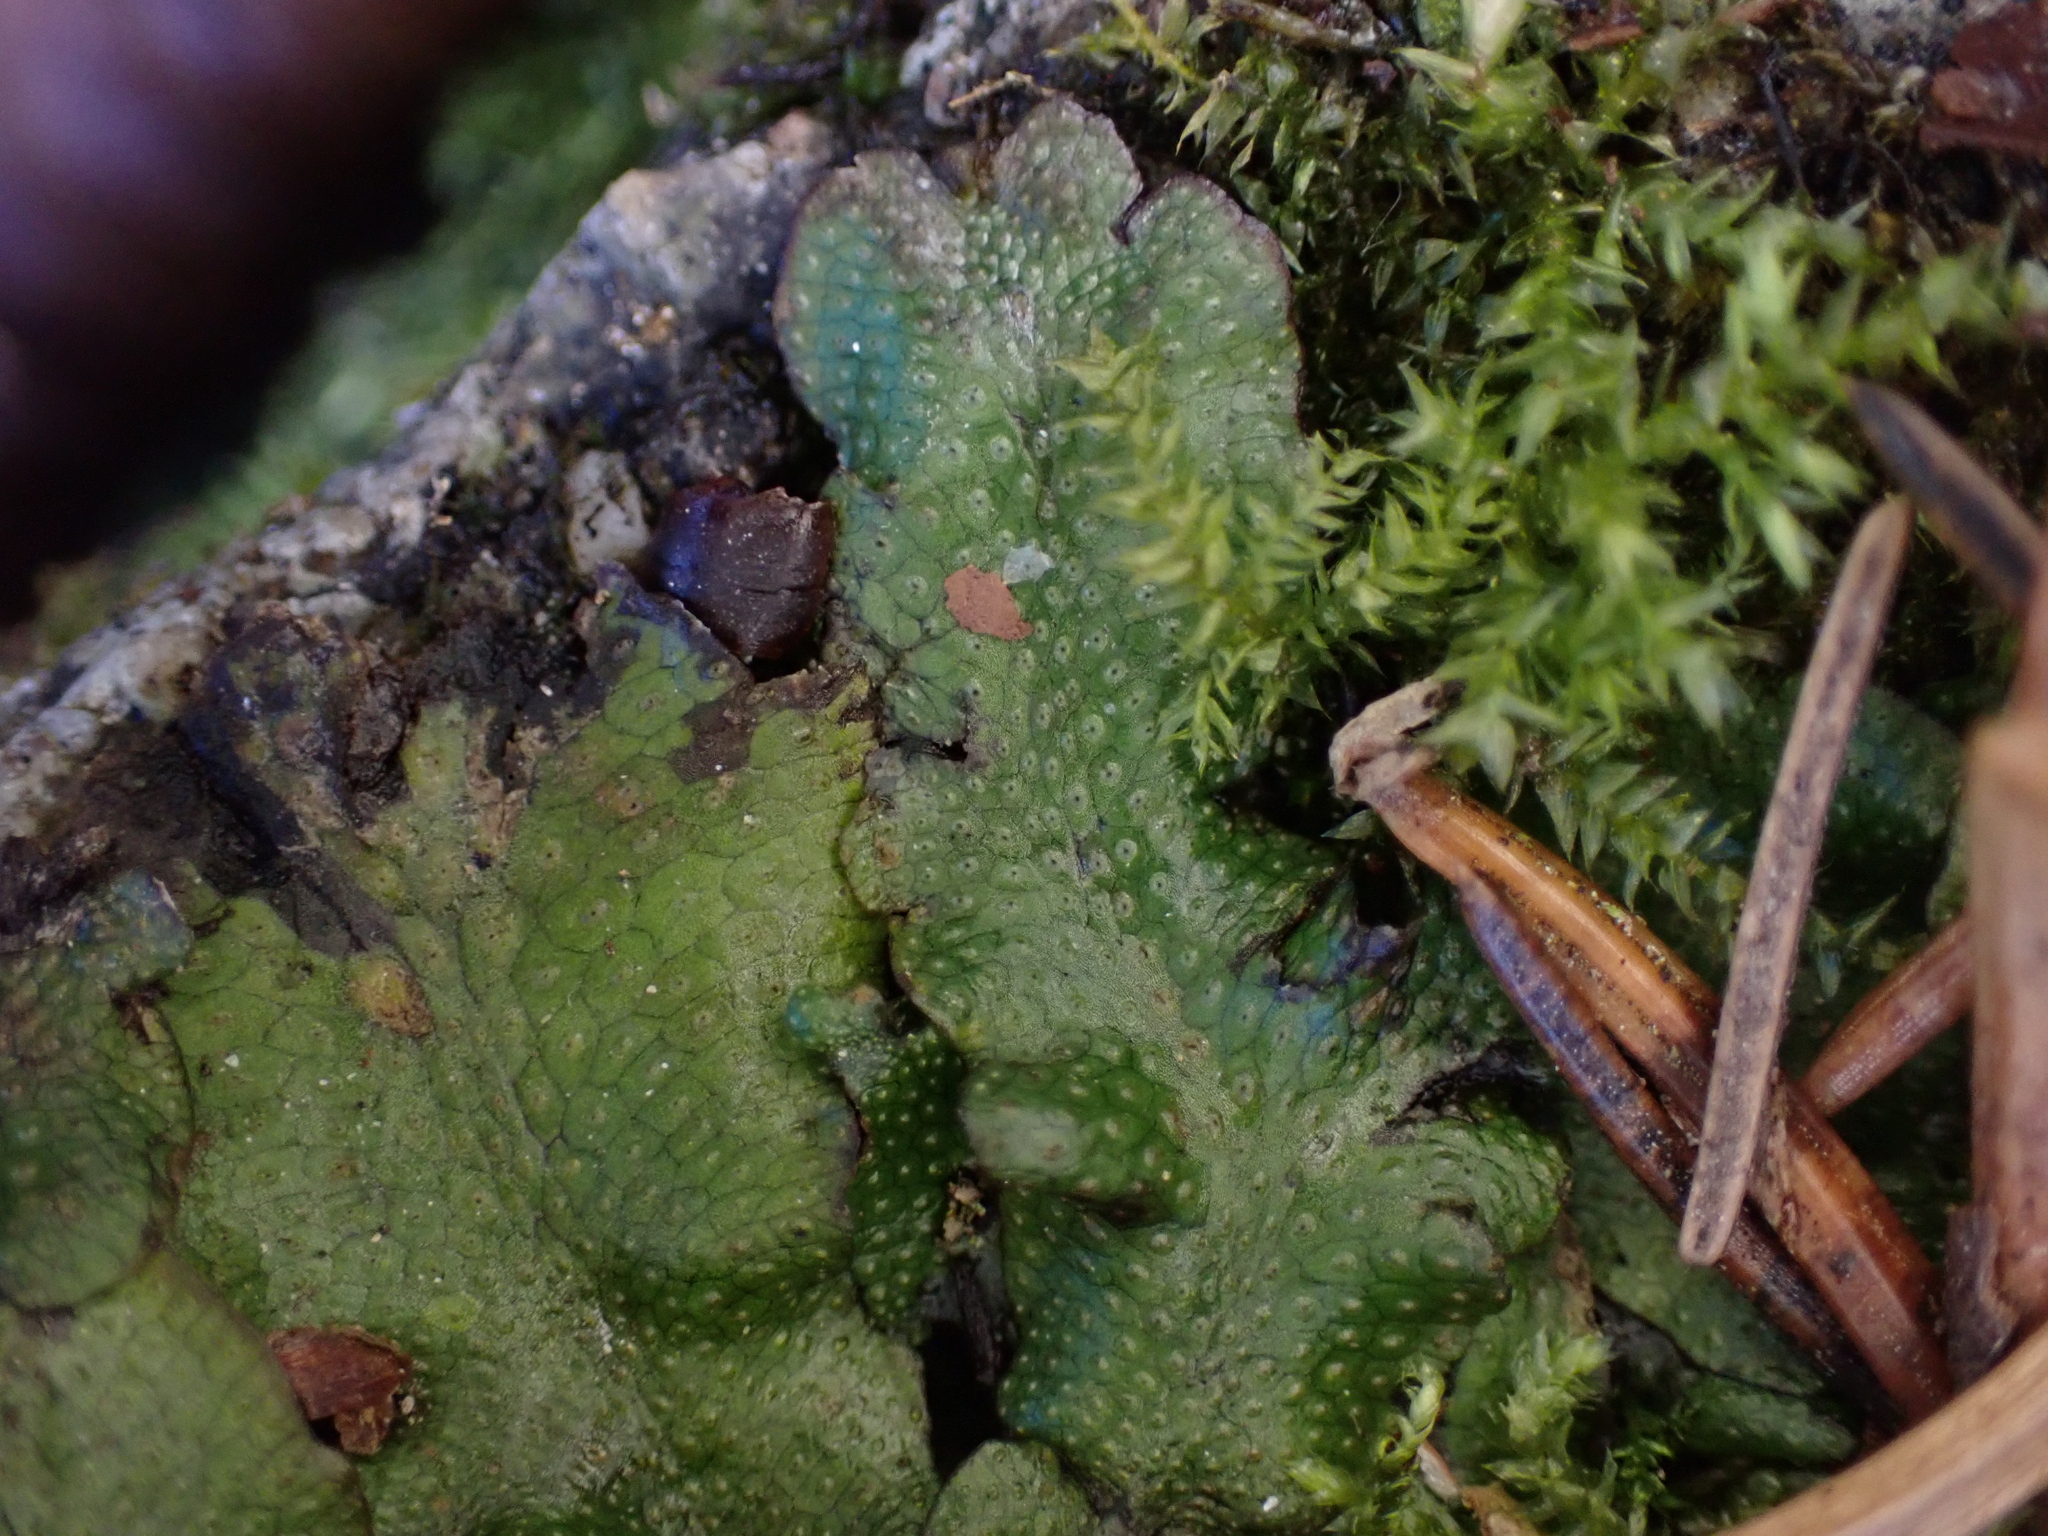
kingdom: Plantae
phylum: Marchantiophyta
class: Marchantiopsida
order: Marchantiales
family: Conocephalaceae
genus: Conocephalum
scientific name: Conocephalum conicum
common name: Great scented liverwort
